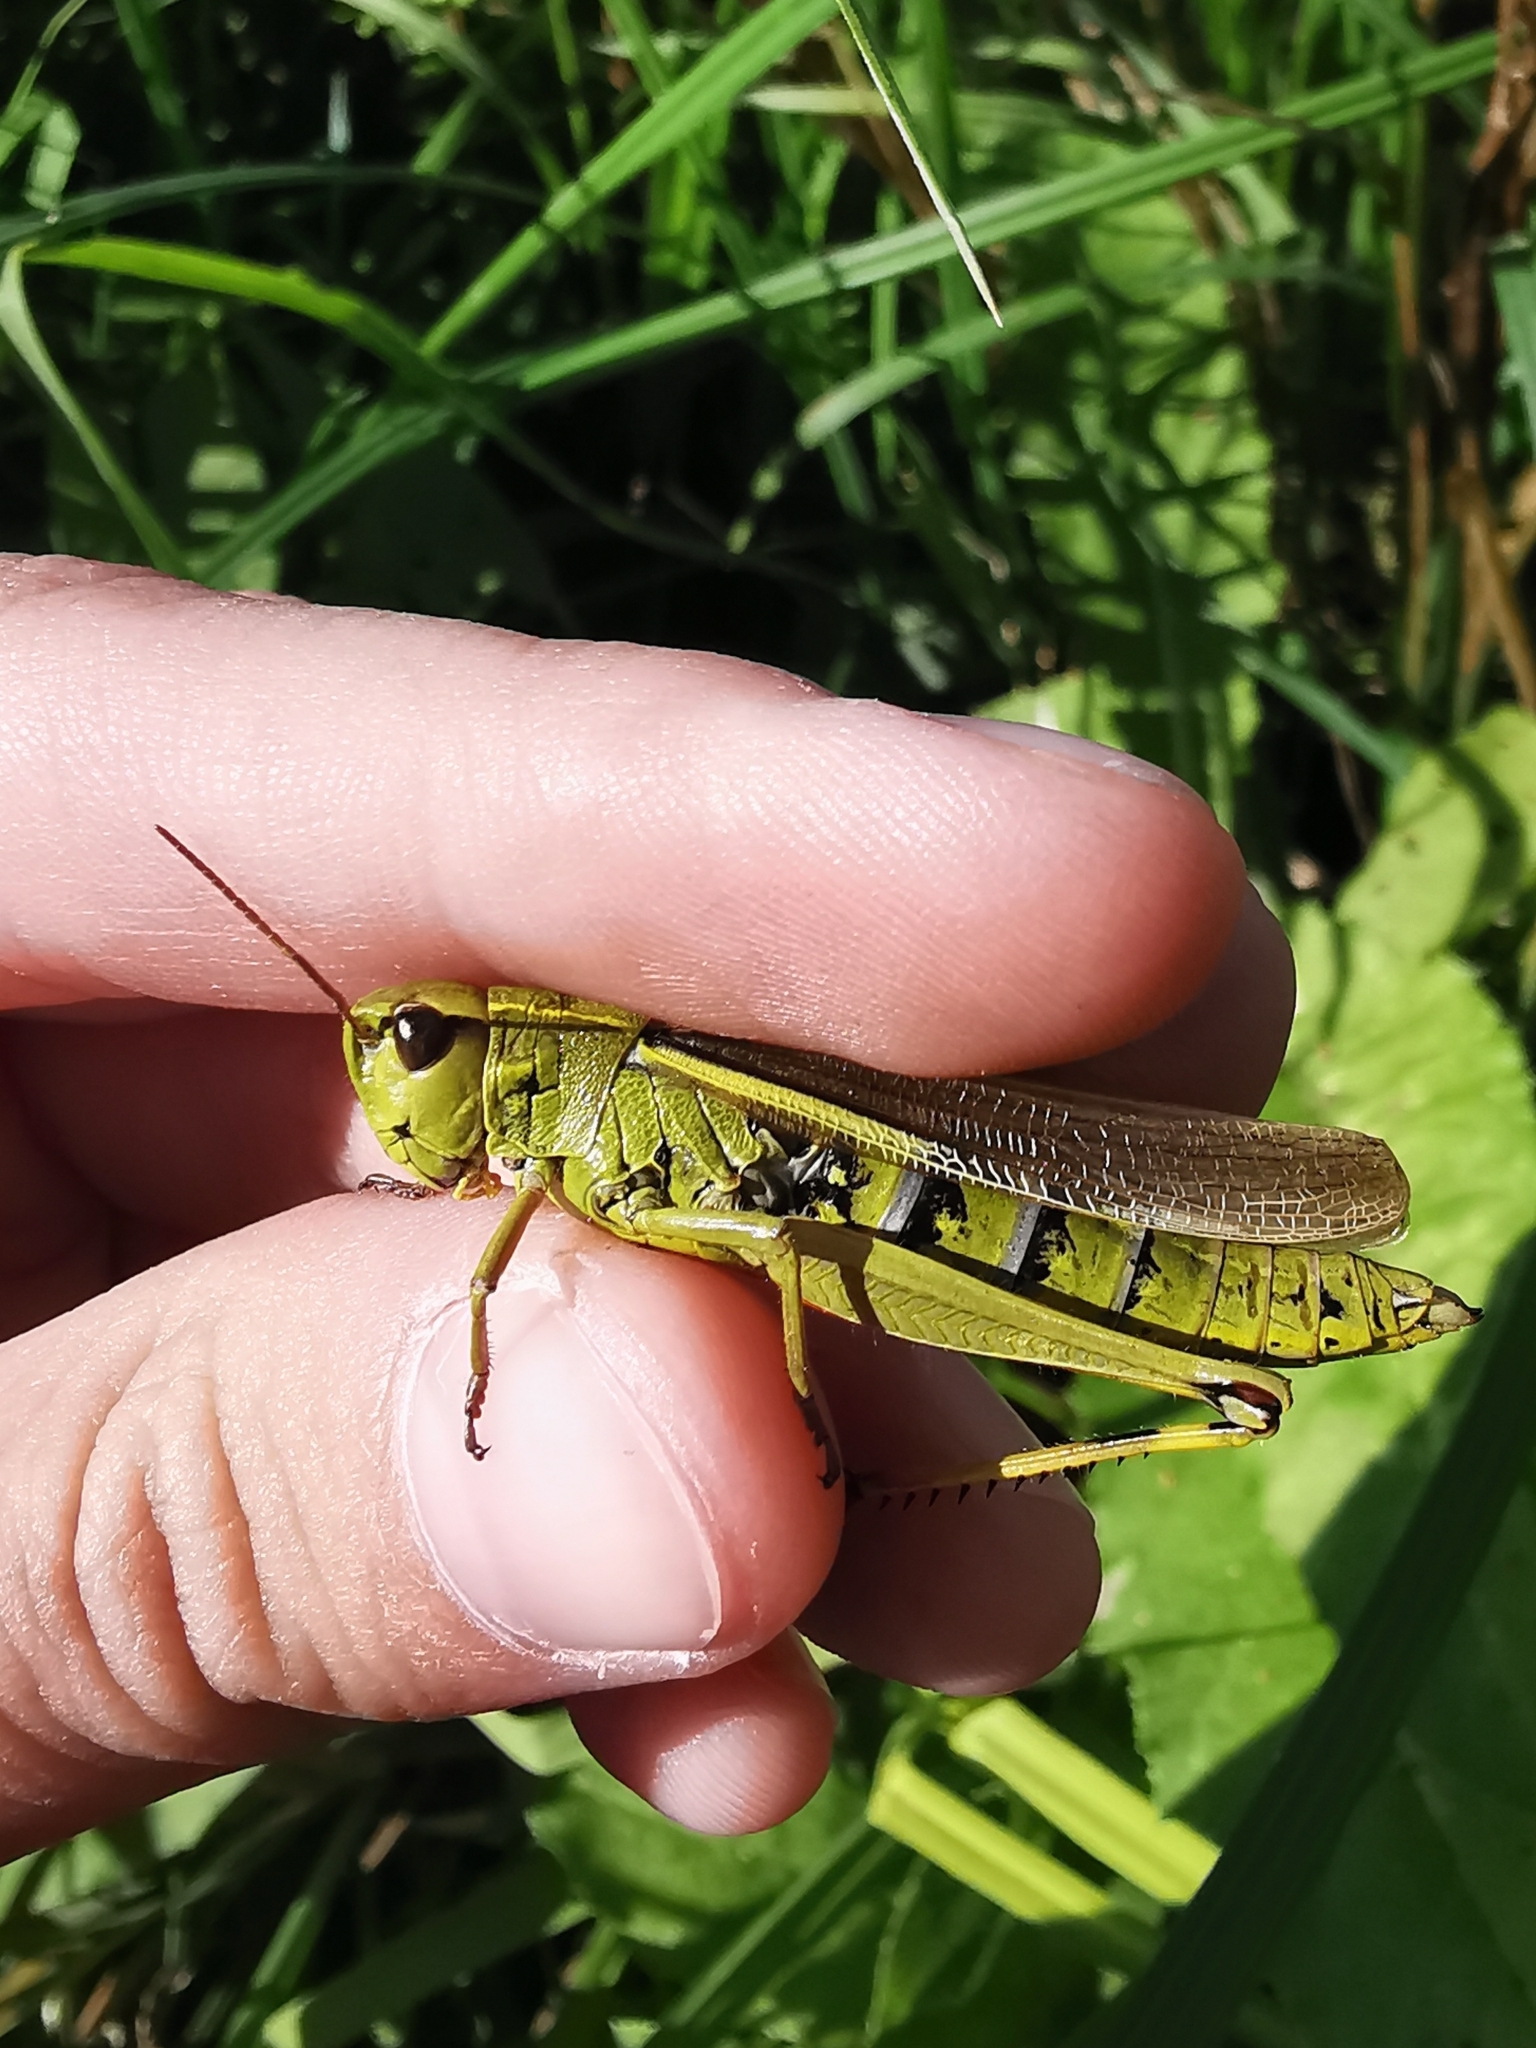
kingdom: Animalia
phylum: Arthropoda
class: Insecta
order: Orthoptera
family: Acrididae
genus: Stethophyma
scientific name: Stethophyma grossum
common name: Large marsh grasshopper
